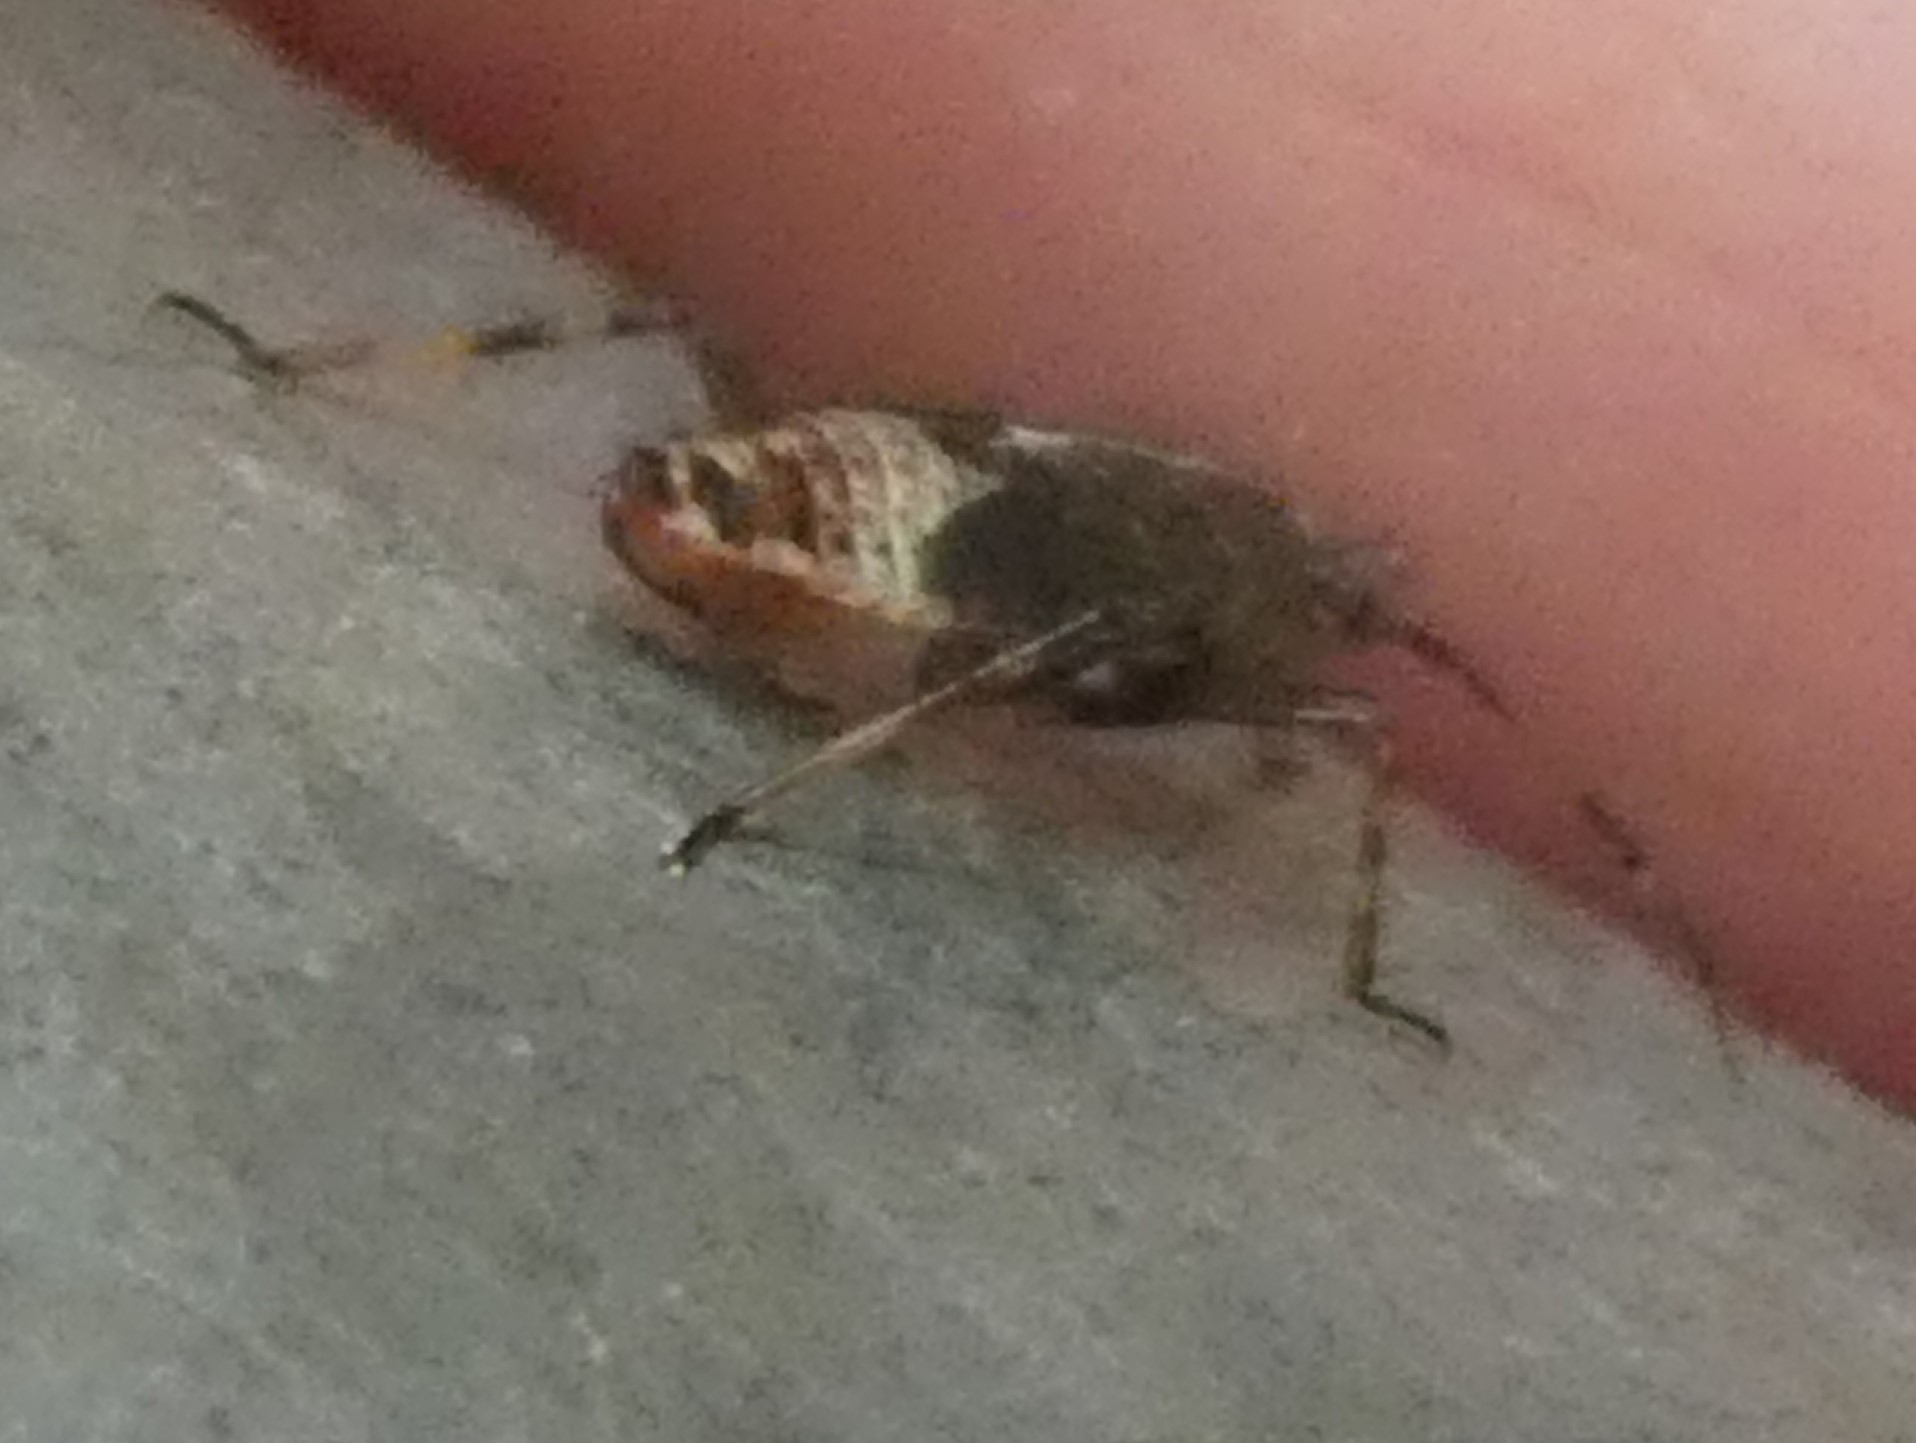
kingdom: Animalia
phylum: Arthropoda
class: Insecta
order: Hemiptera
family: Miridae
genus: Deraeocoris
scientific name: Deraeocoris flavilinea
